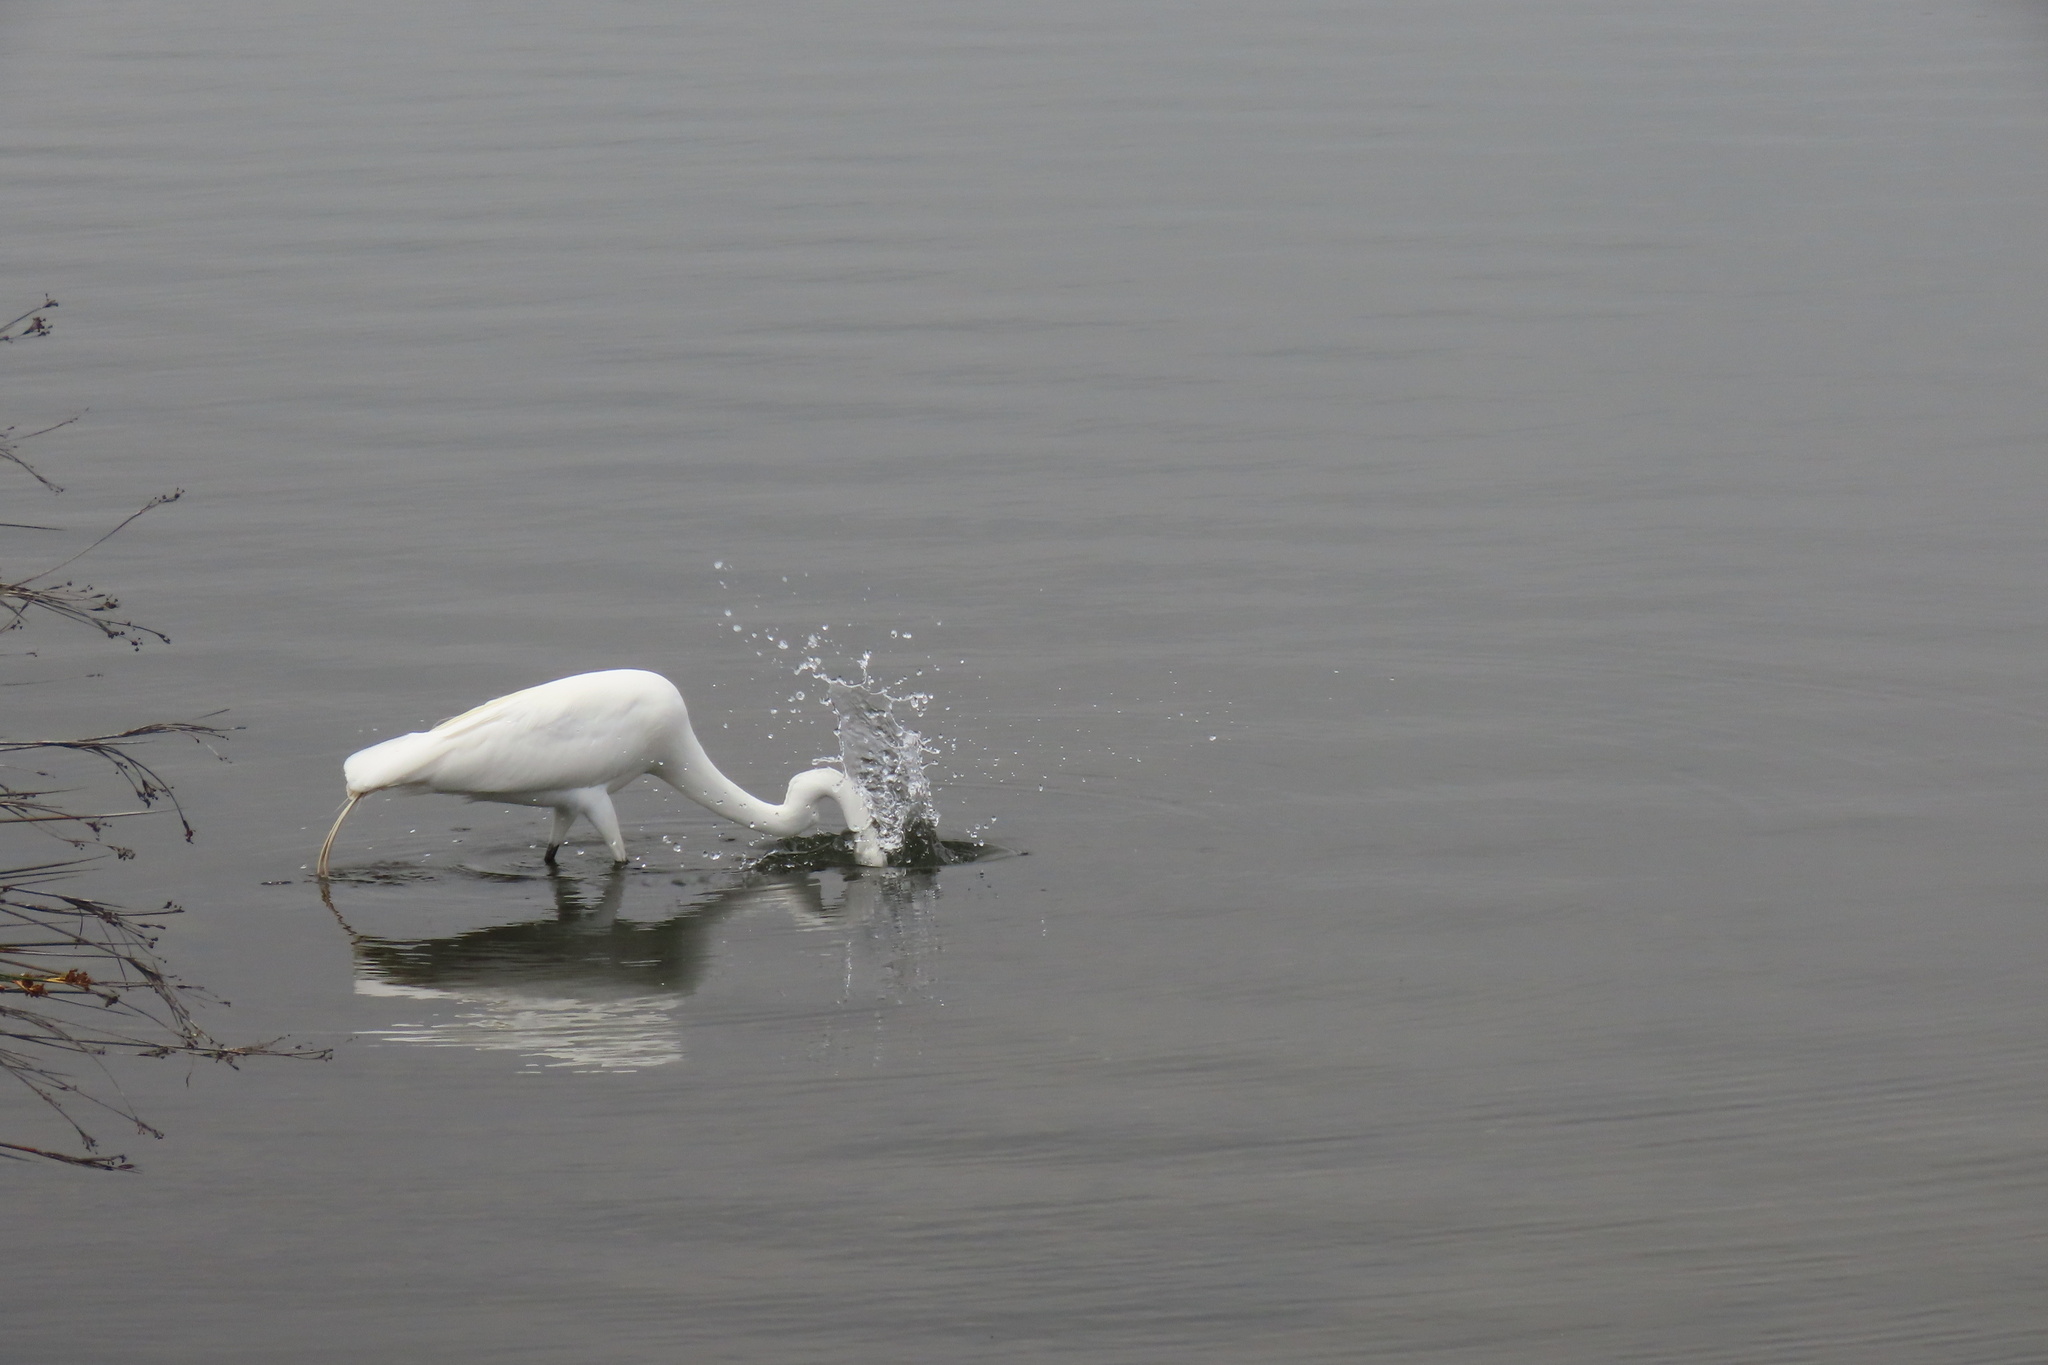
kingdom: Animalia
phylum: Chordata
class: Aves
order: Pelecaniformes
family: Ardeidae
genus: Ardea
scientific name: Ardea alba
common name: Great egret
